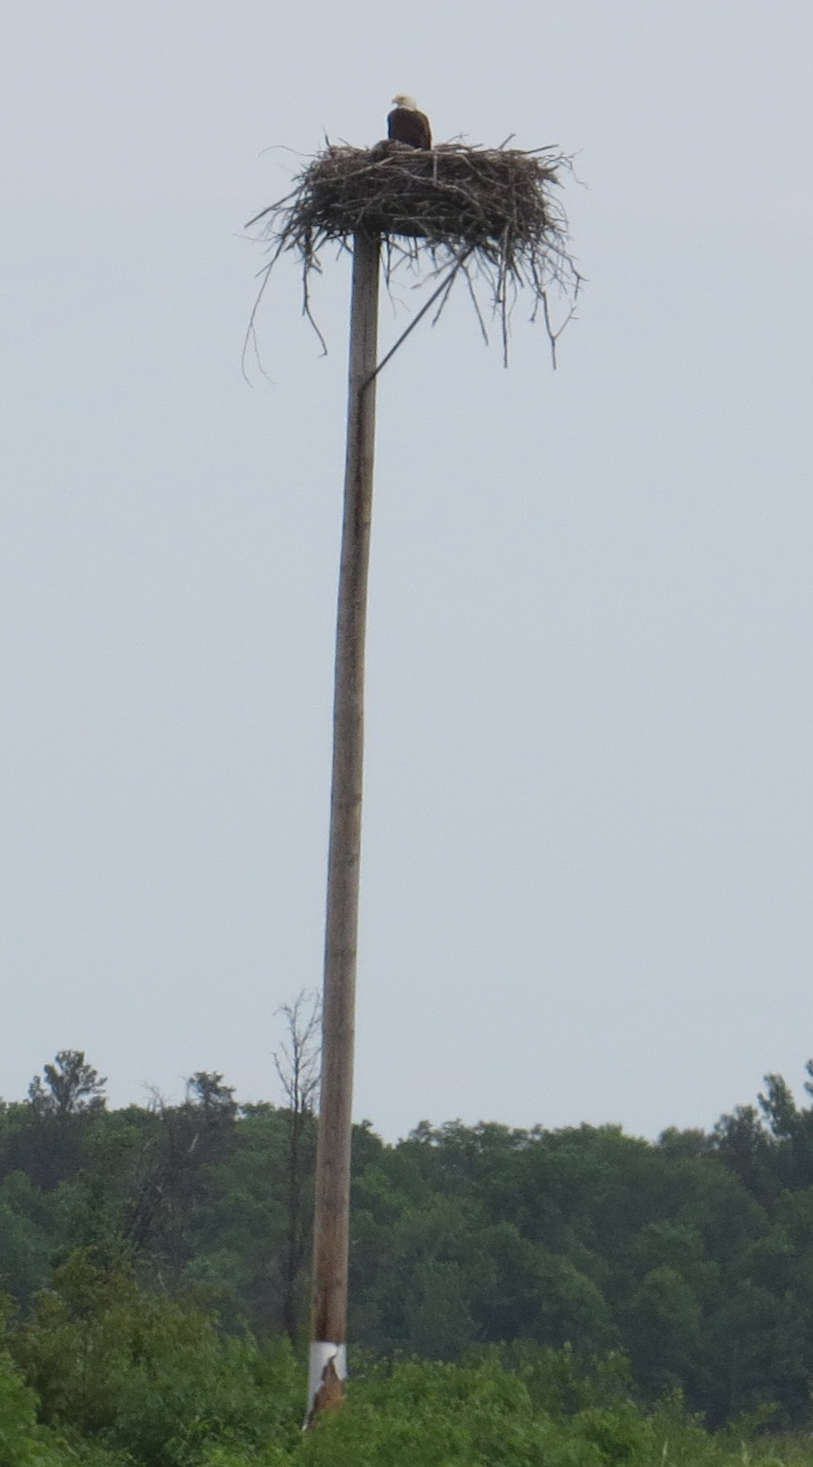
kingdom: Animalia
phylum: Chordata
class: Aves
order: Accipitriformes
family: Accipitridae
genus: Haliaeetus
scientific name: Haliaeetus leucocephalus
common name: Bald eagle
